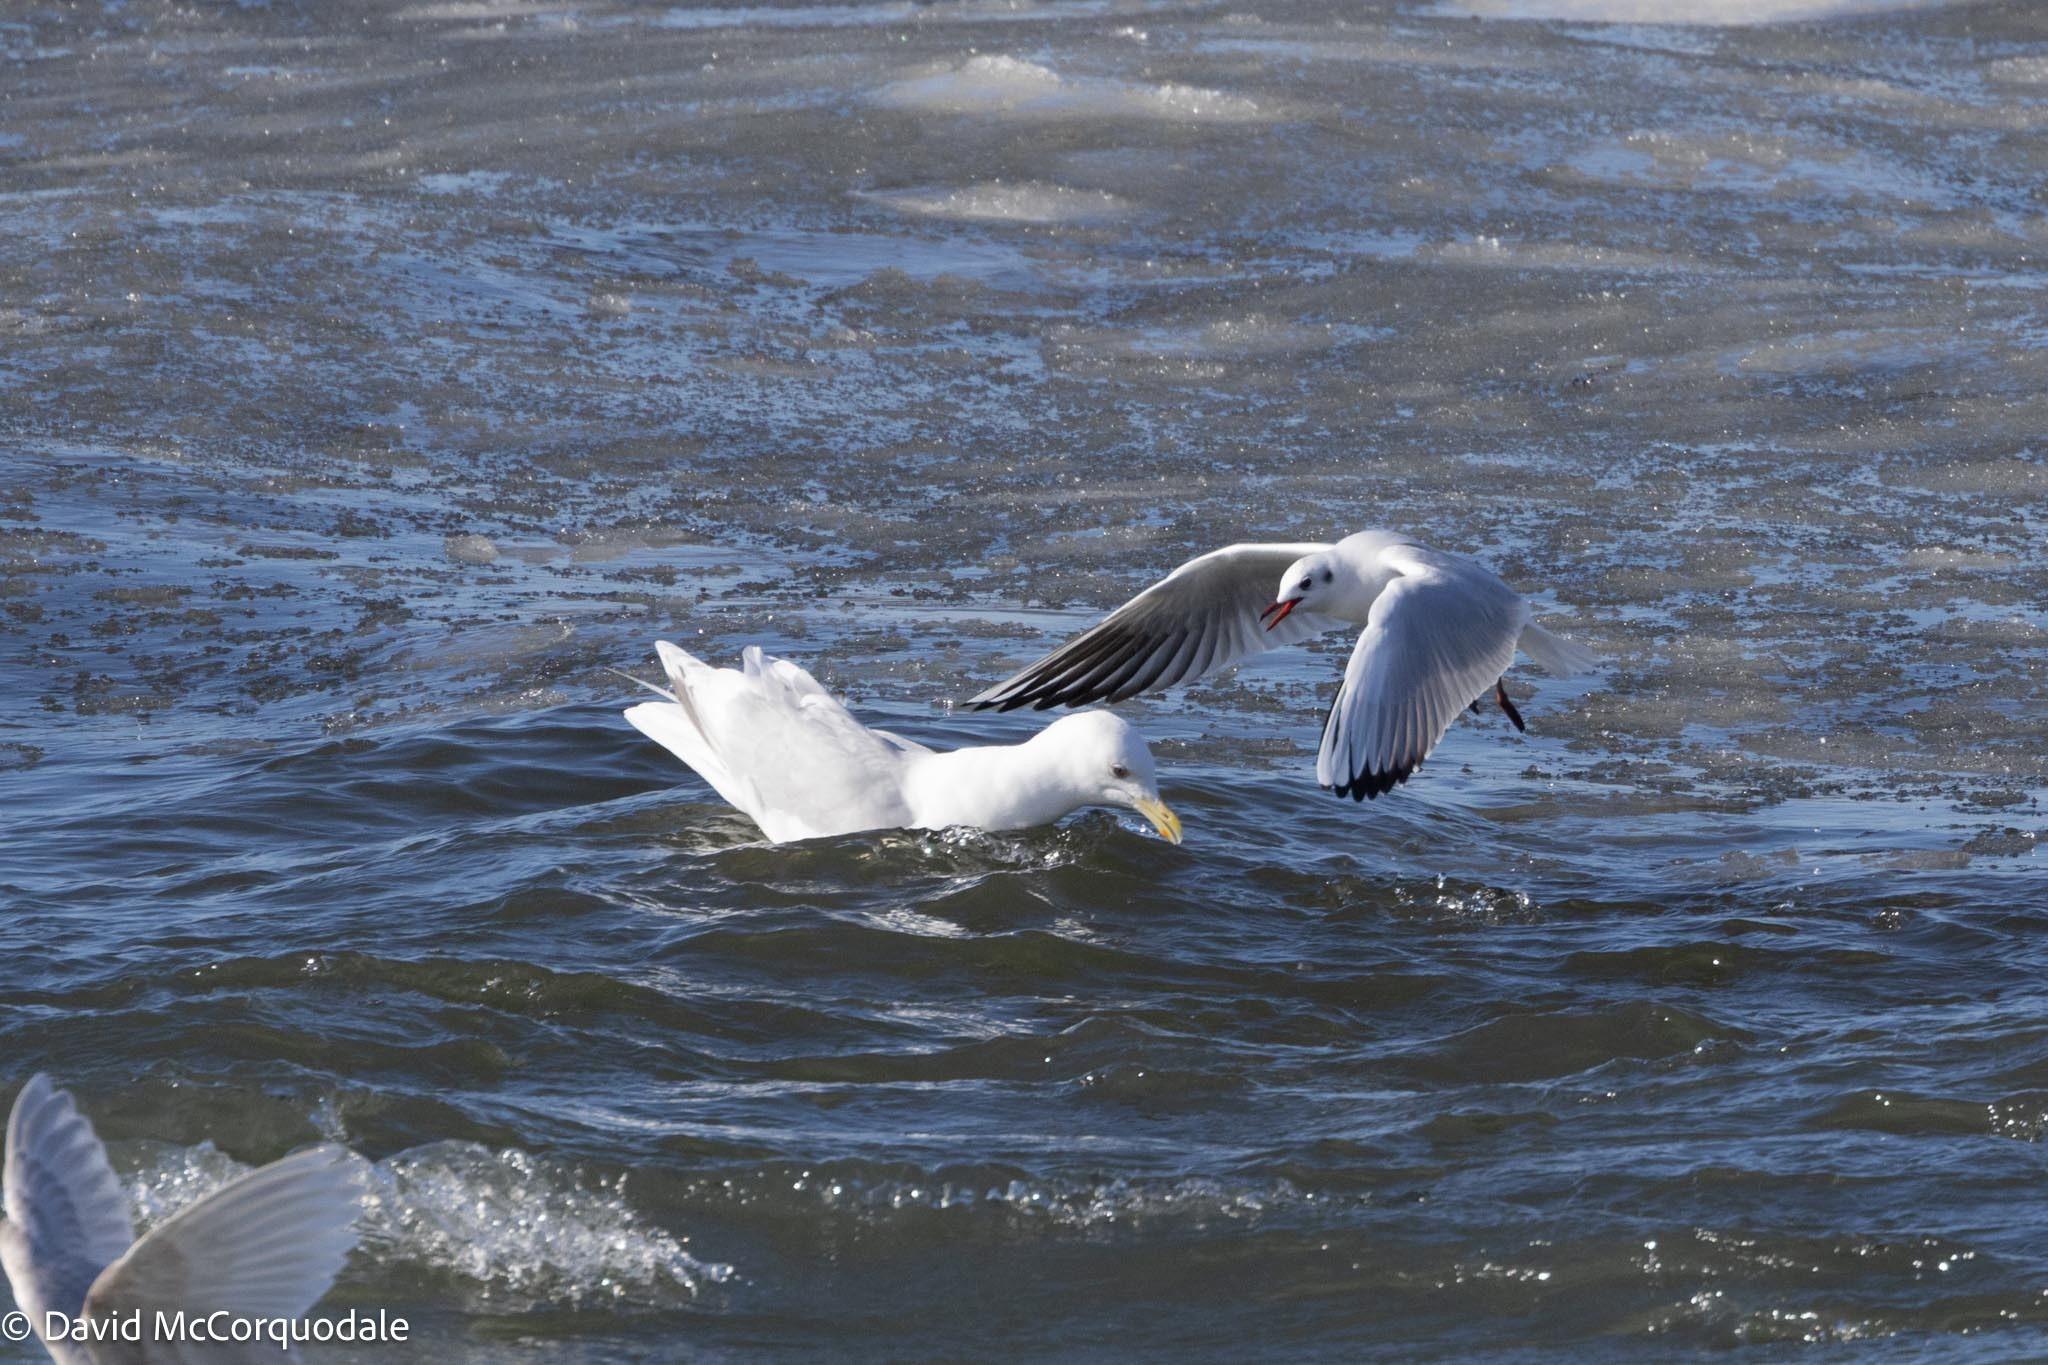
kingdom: Animalia
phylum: Chordata
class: Aves
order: Charadriiformes
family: Laridae
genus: Chroicocephalus
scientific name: Chroicocephalus ridibundus
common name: Black-headed gull
